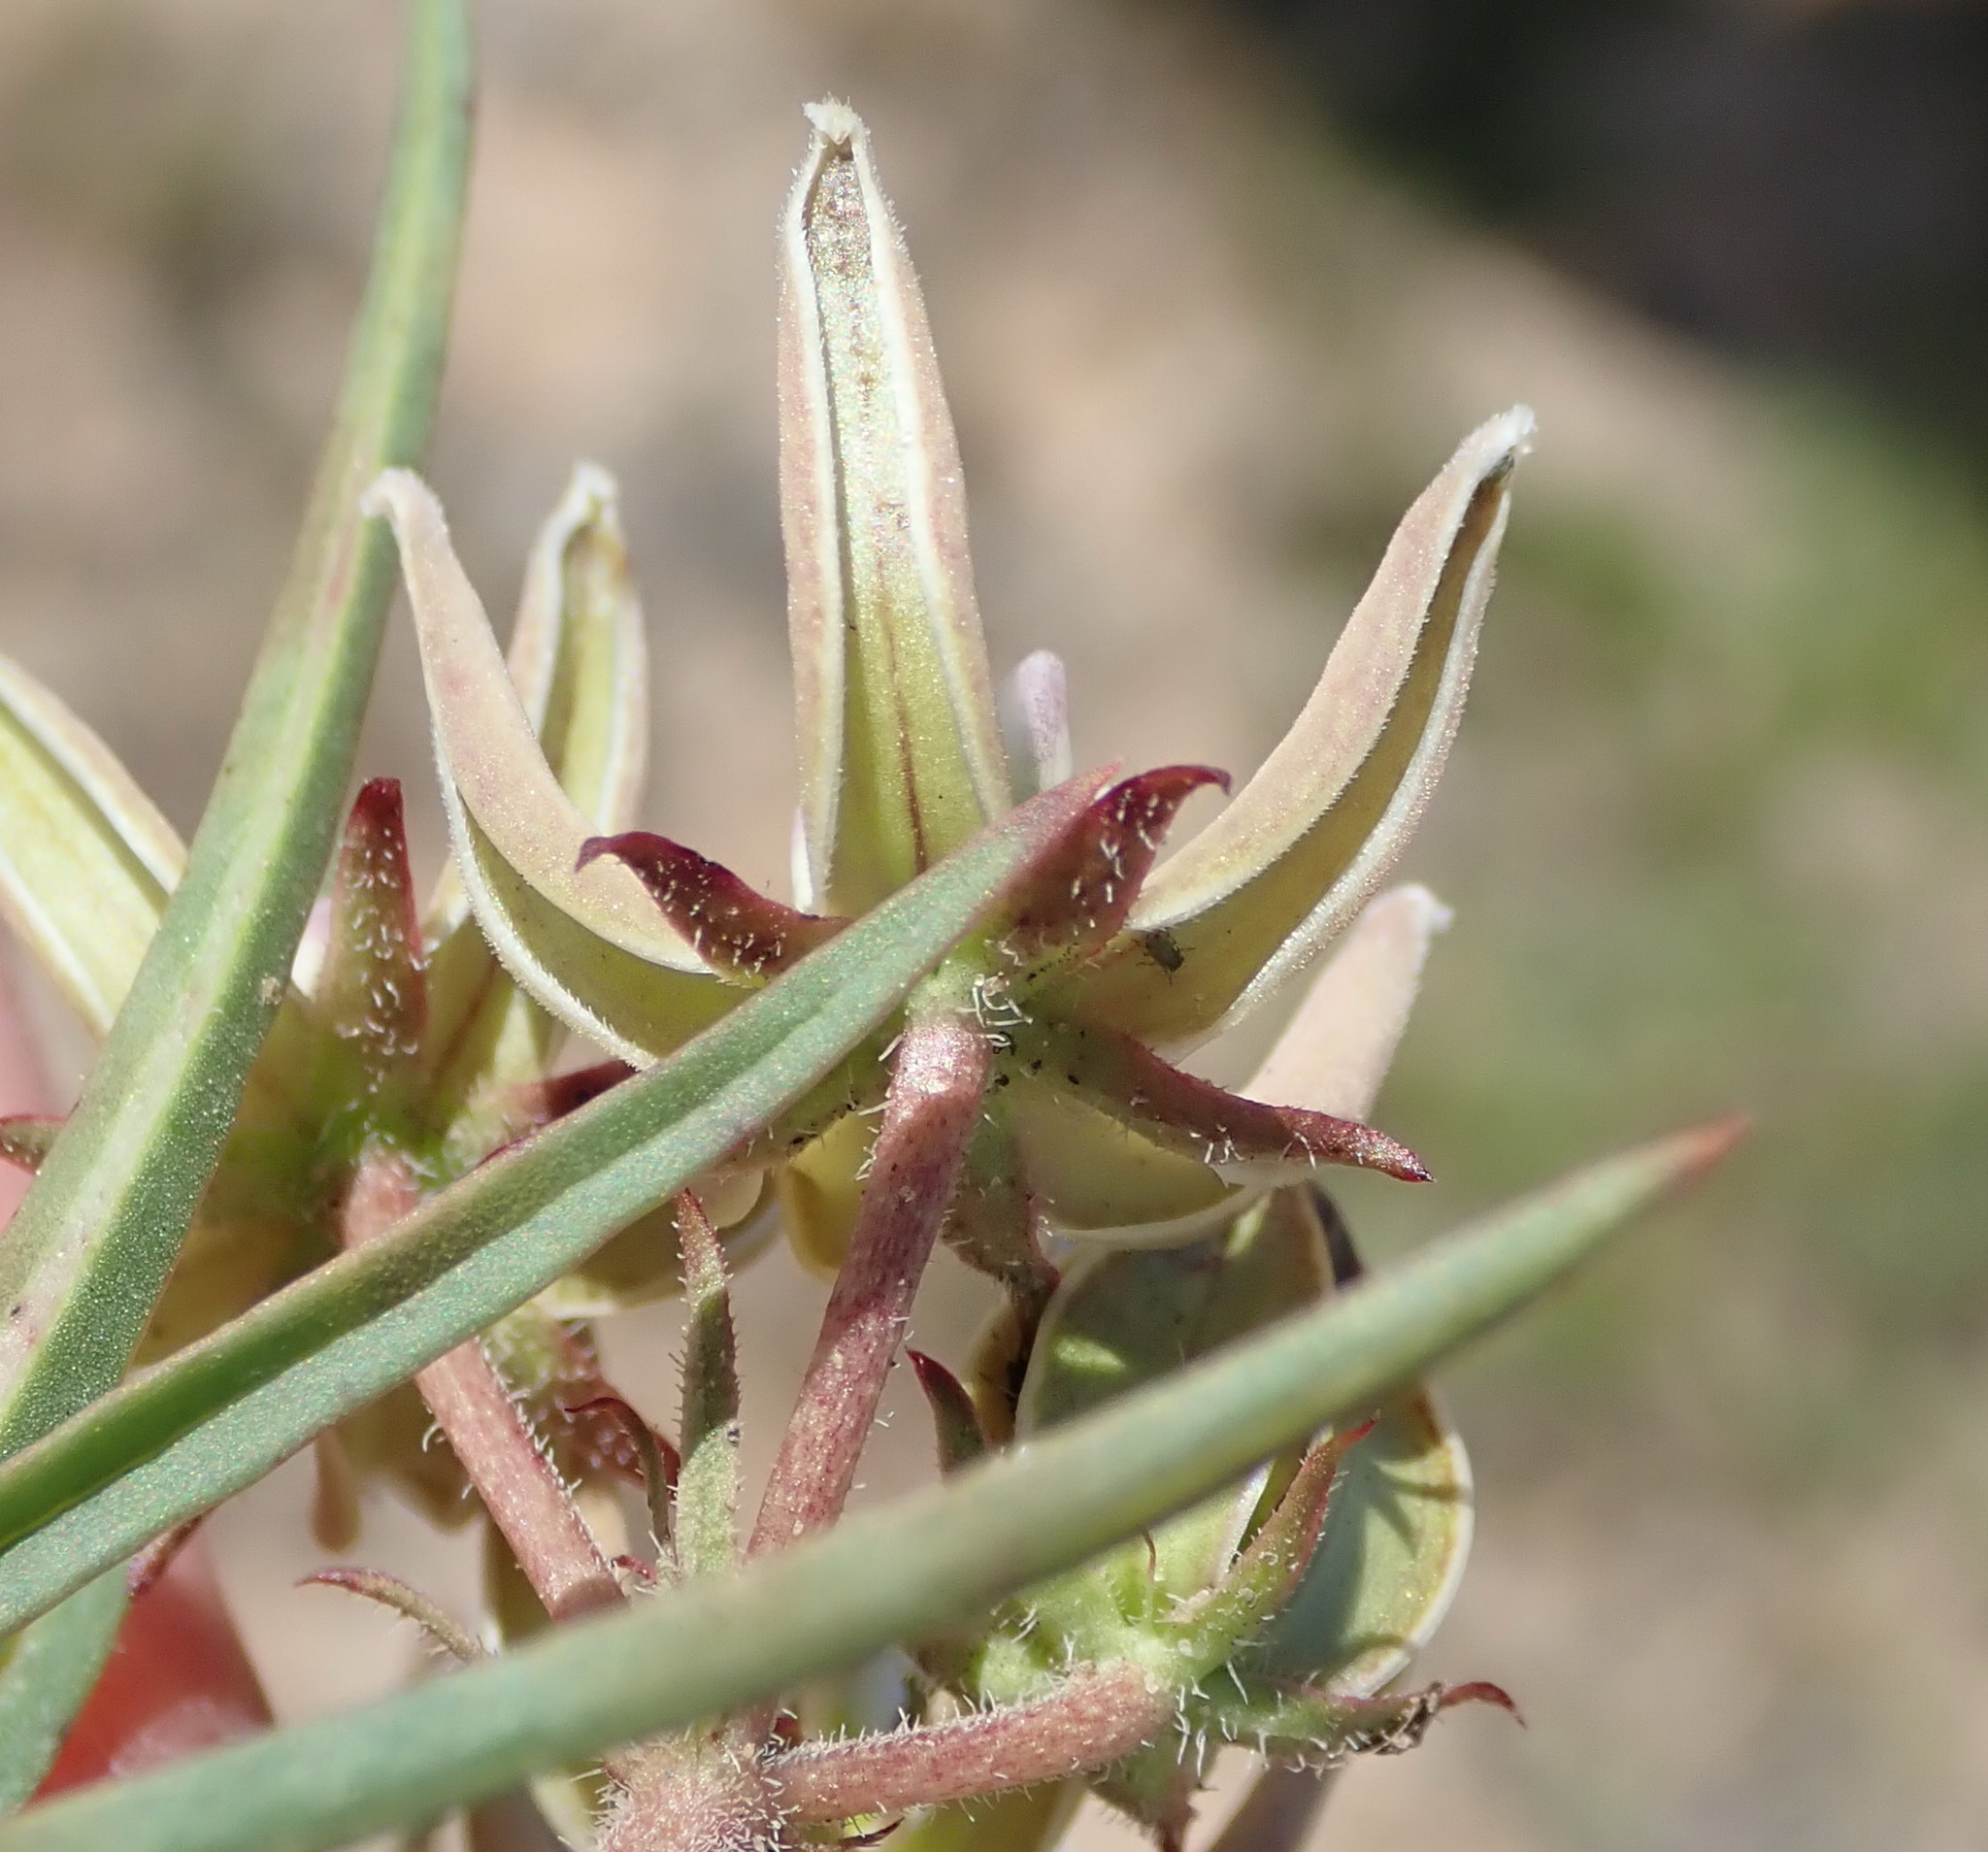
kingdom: Plantae
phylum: Tracheophyta
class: Magnoliopsida
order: Gentianales
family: Apocynaceae
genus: Asclepias
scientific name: Asclepias navicularis
